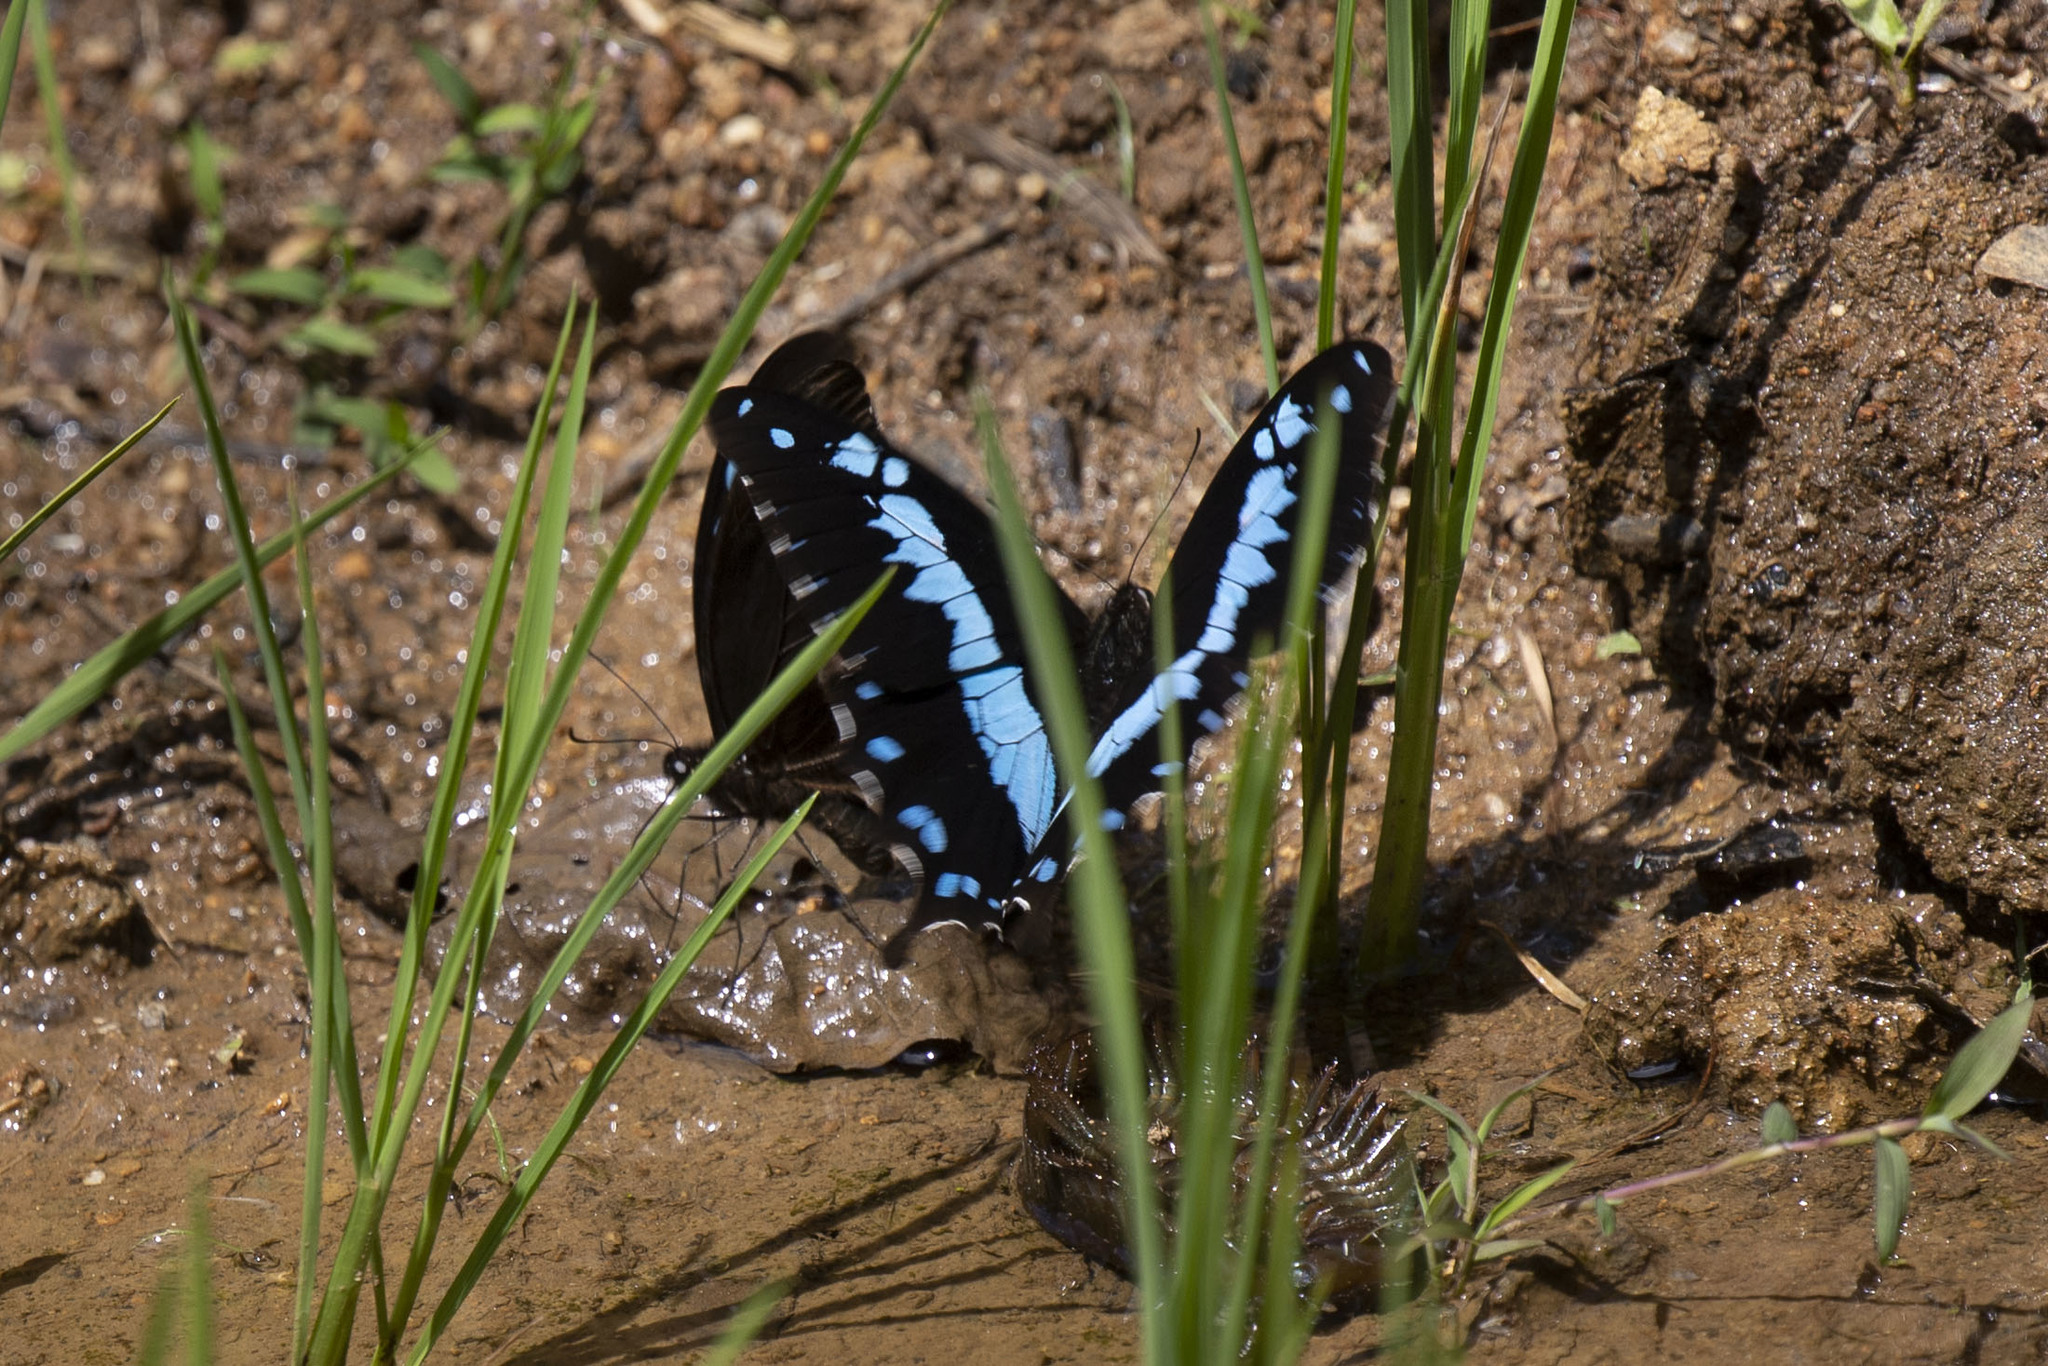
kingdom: Animalia
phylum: Arthropoda
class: Insecta
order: Lepidoptera
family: Papilionidae
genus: Papilio
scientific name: Papilio oribazus
